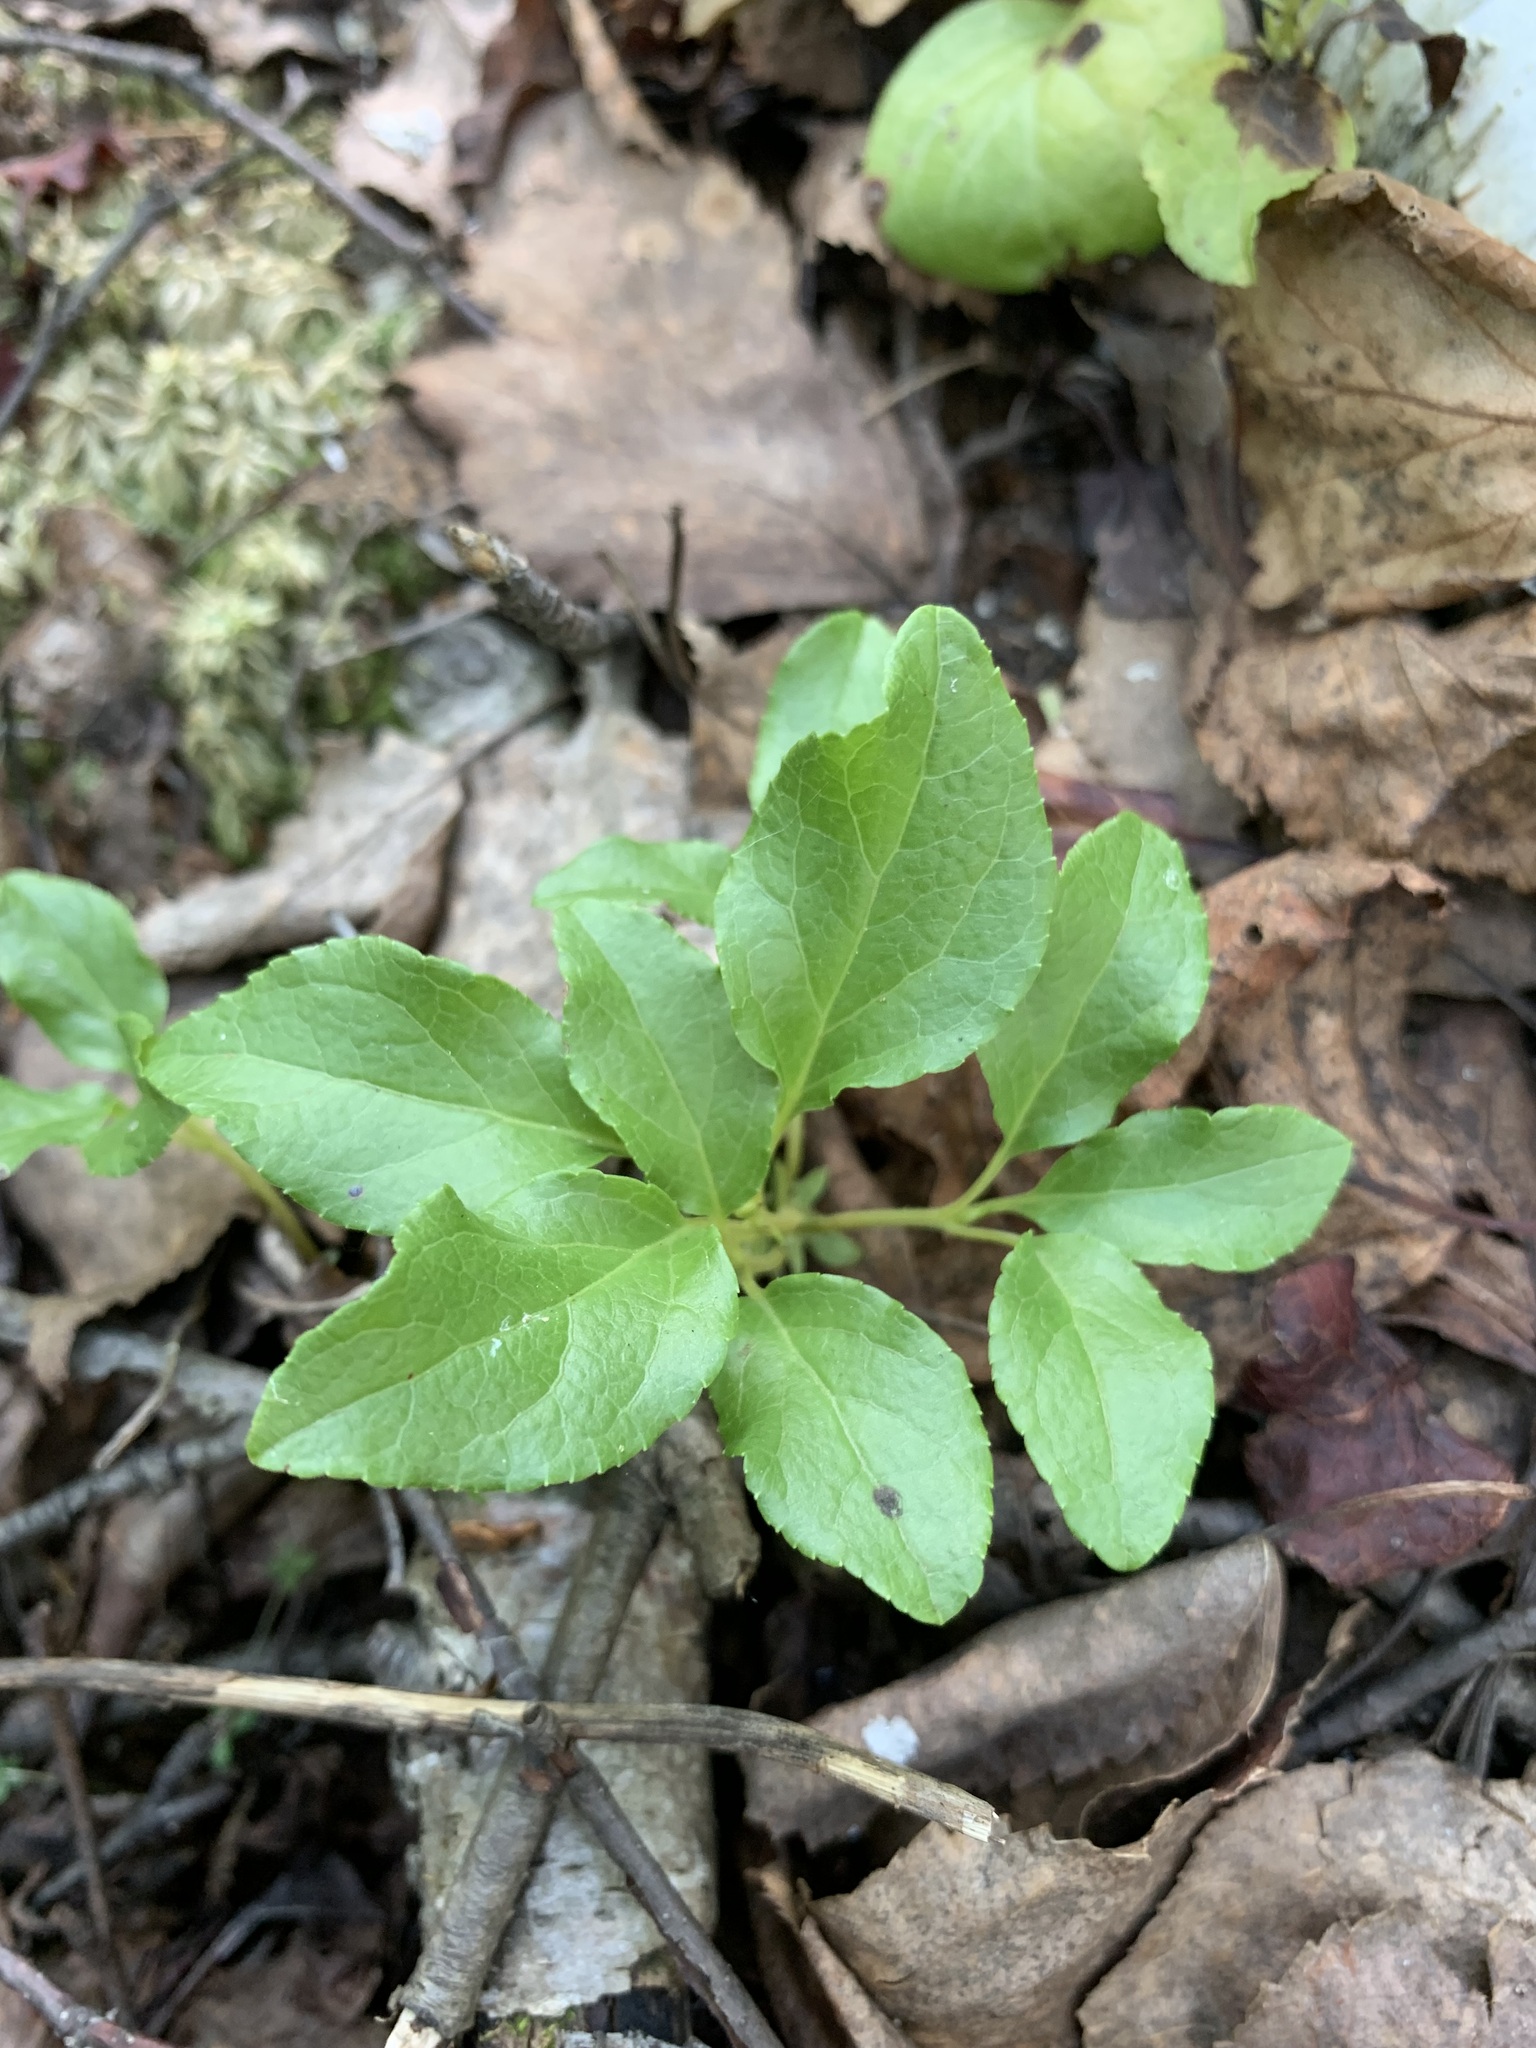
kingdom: Plantae
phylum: Tracheophyta
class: Magnoliopsida
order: Ericales
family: Ericaceae
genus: Orthilia
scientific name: Orthilia secunda
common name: One-sided orthilia
